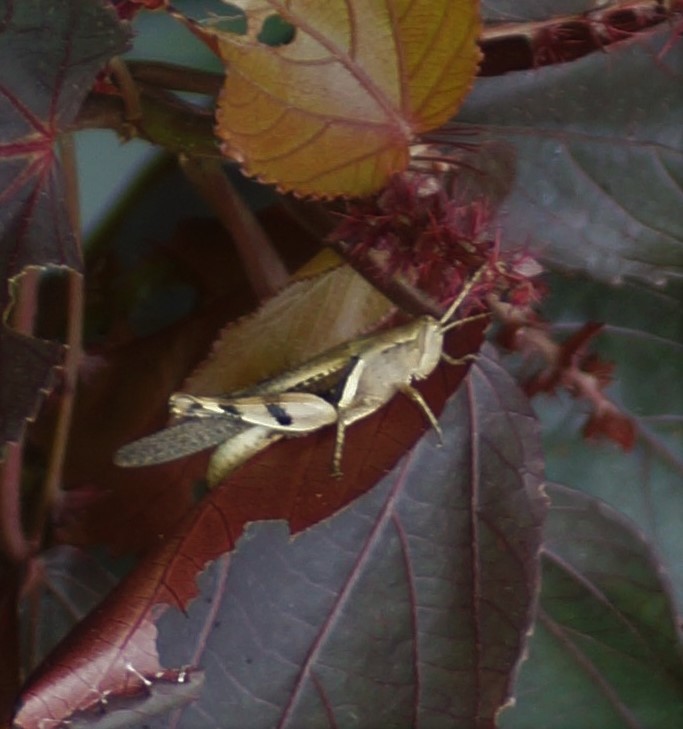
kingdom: Animalia
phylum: Arthropoda
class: Insecta
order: Orthoptera
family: Acrididae
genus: Stenocatantops
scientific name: Stenocatantops angustifrons
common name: Common tropical sharptail
